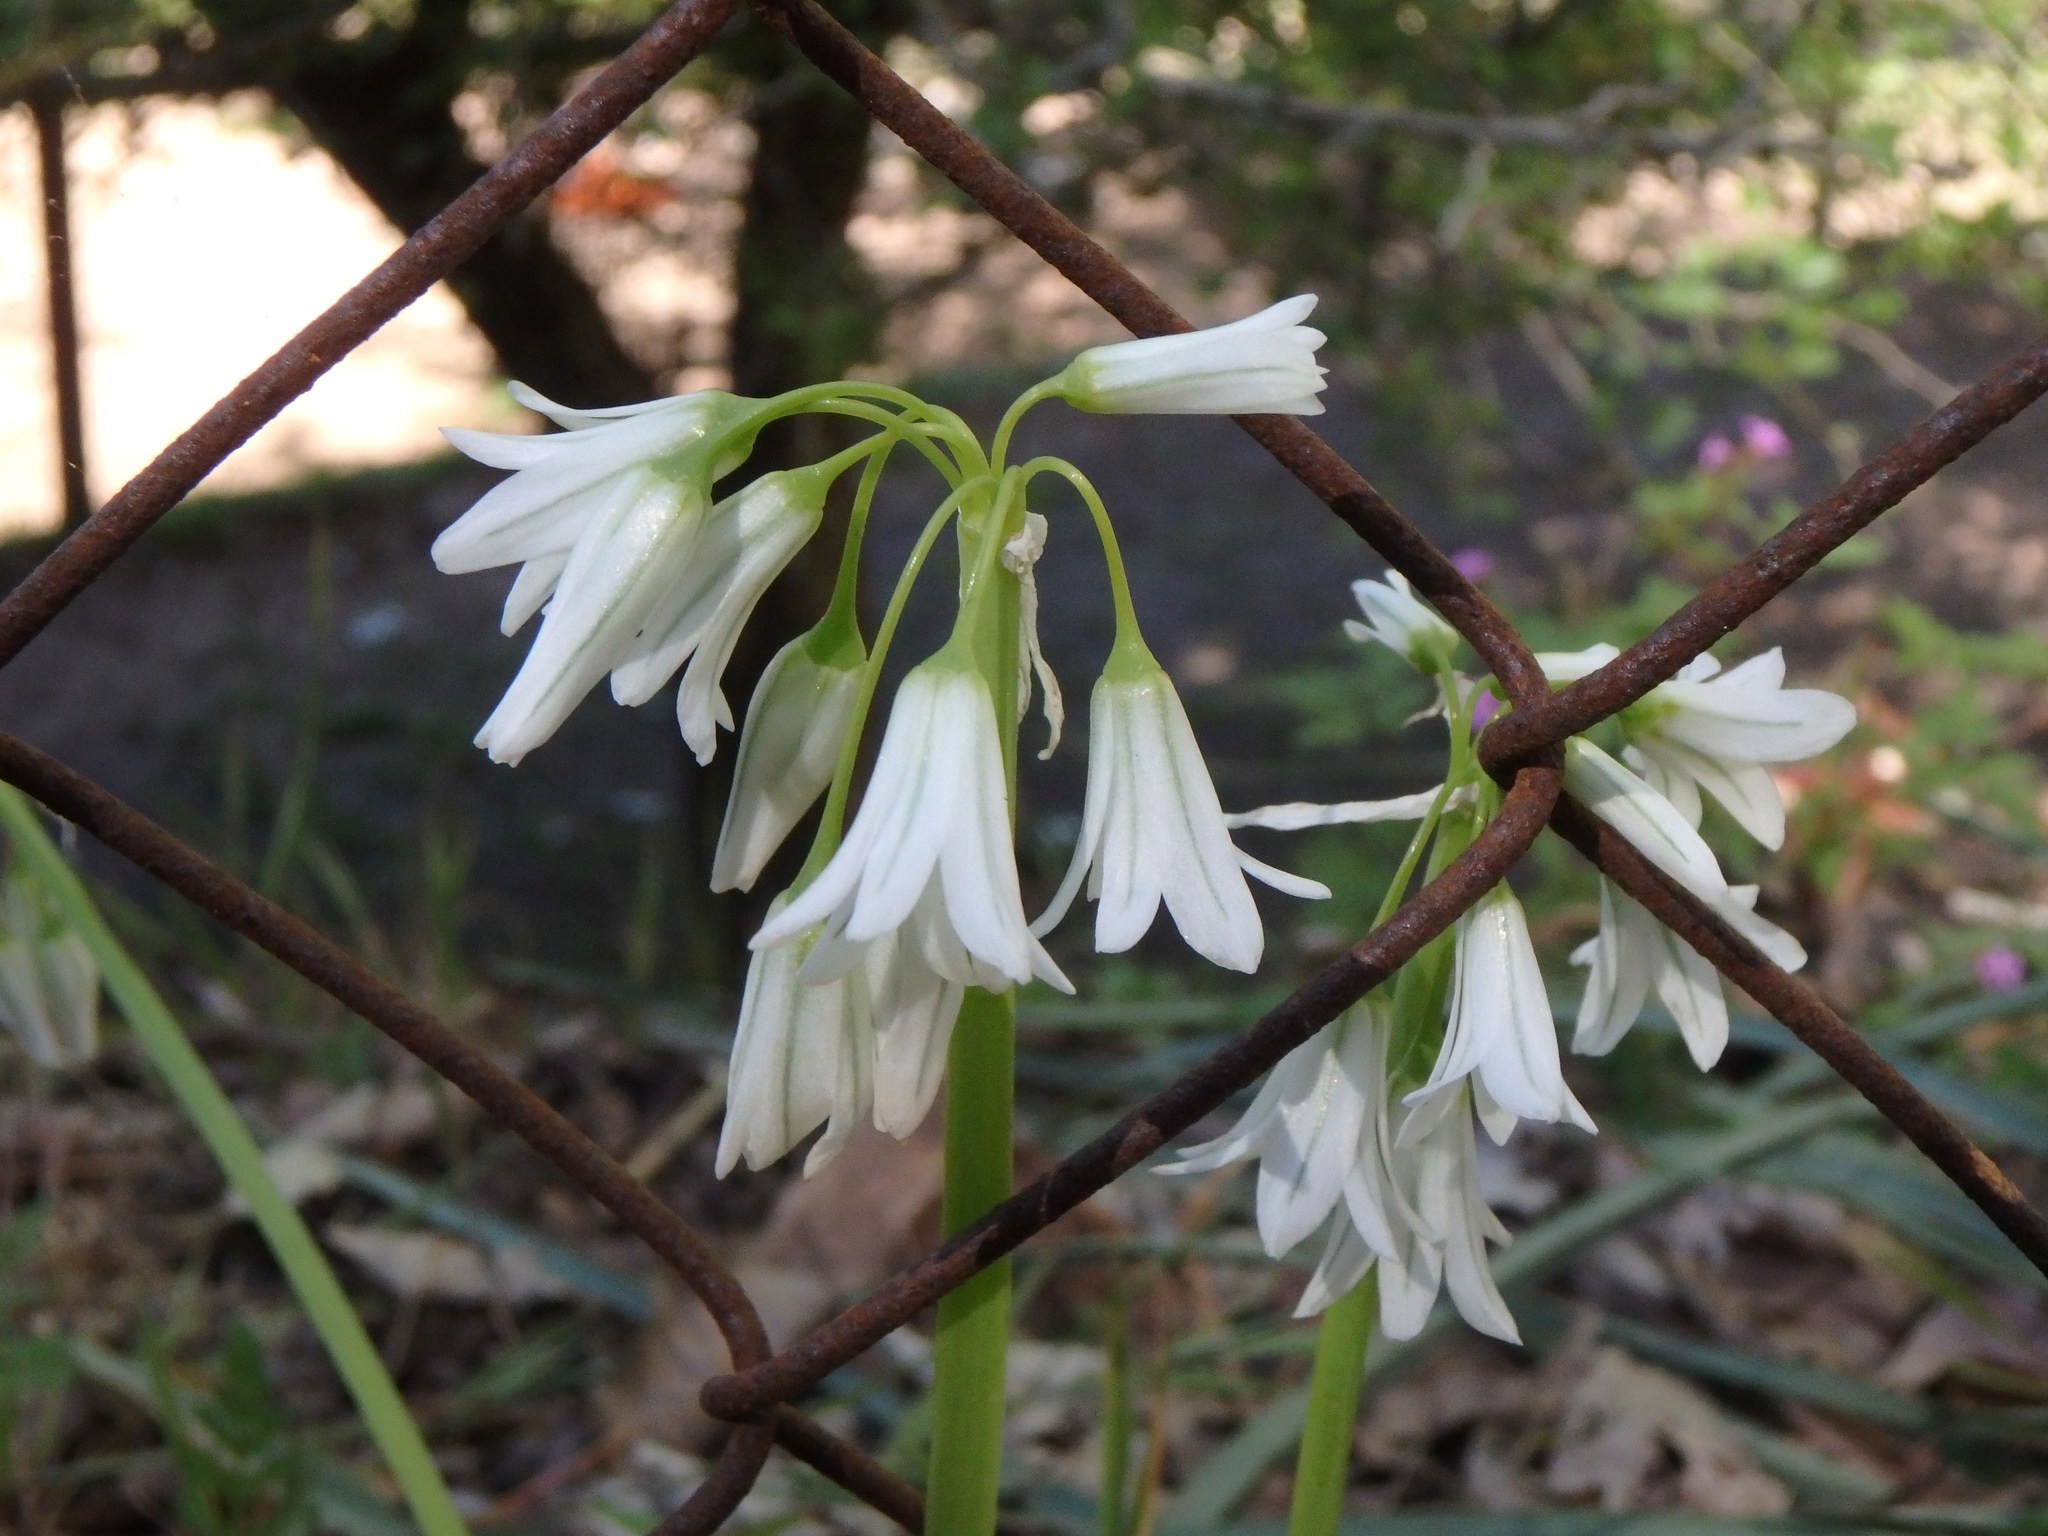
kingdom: Plantae
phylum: Tracheophyta
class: Liliopsida
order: Asparagales
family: Amaryllidaceae
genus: Allium
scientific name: Allium triquetrum
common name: Three-cornered garlic
